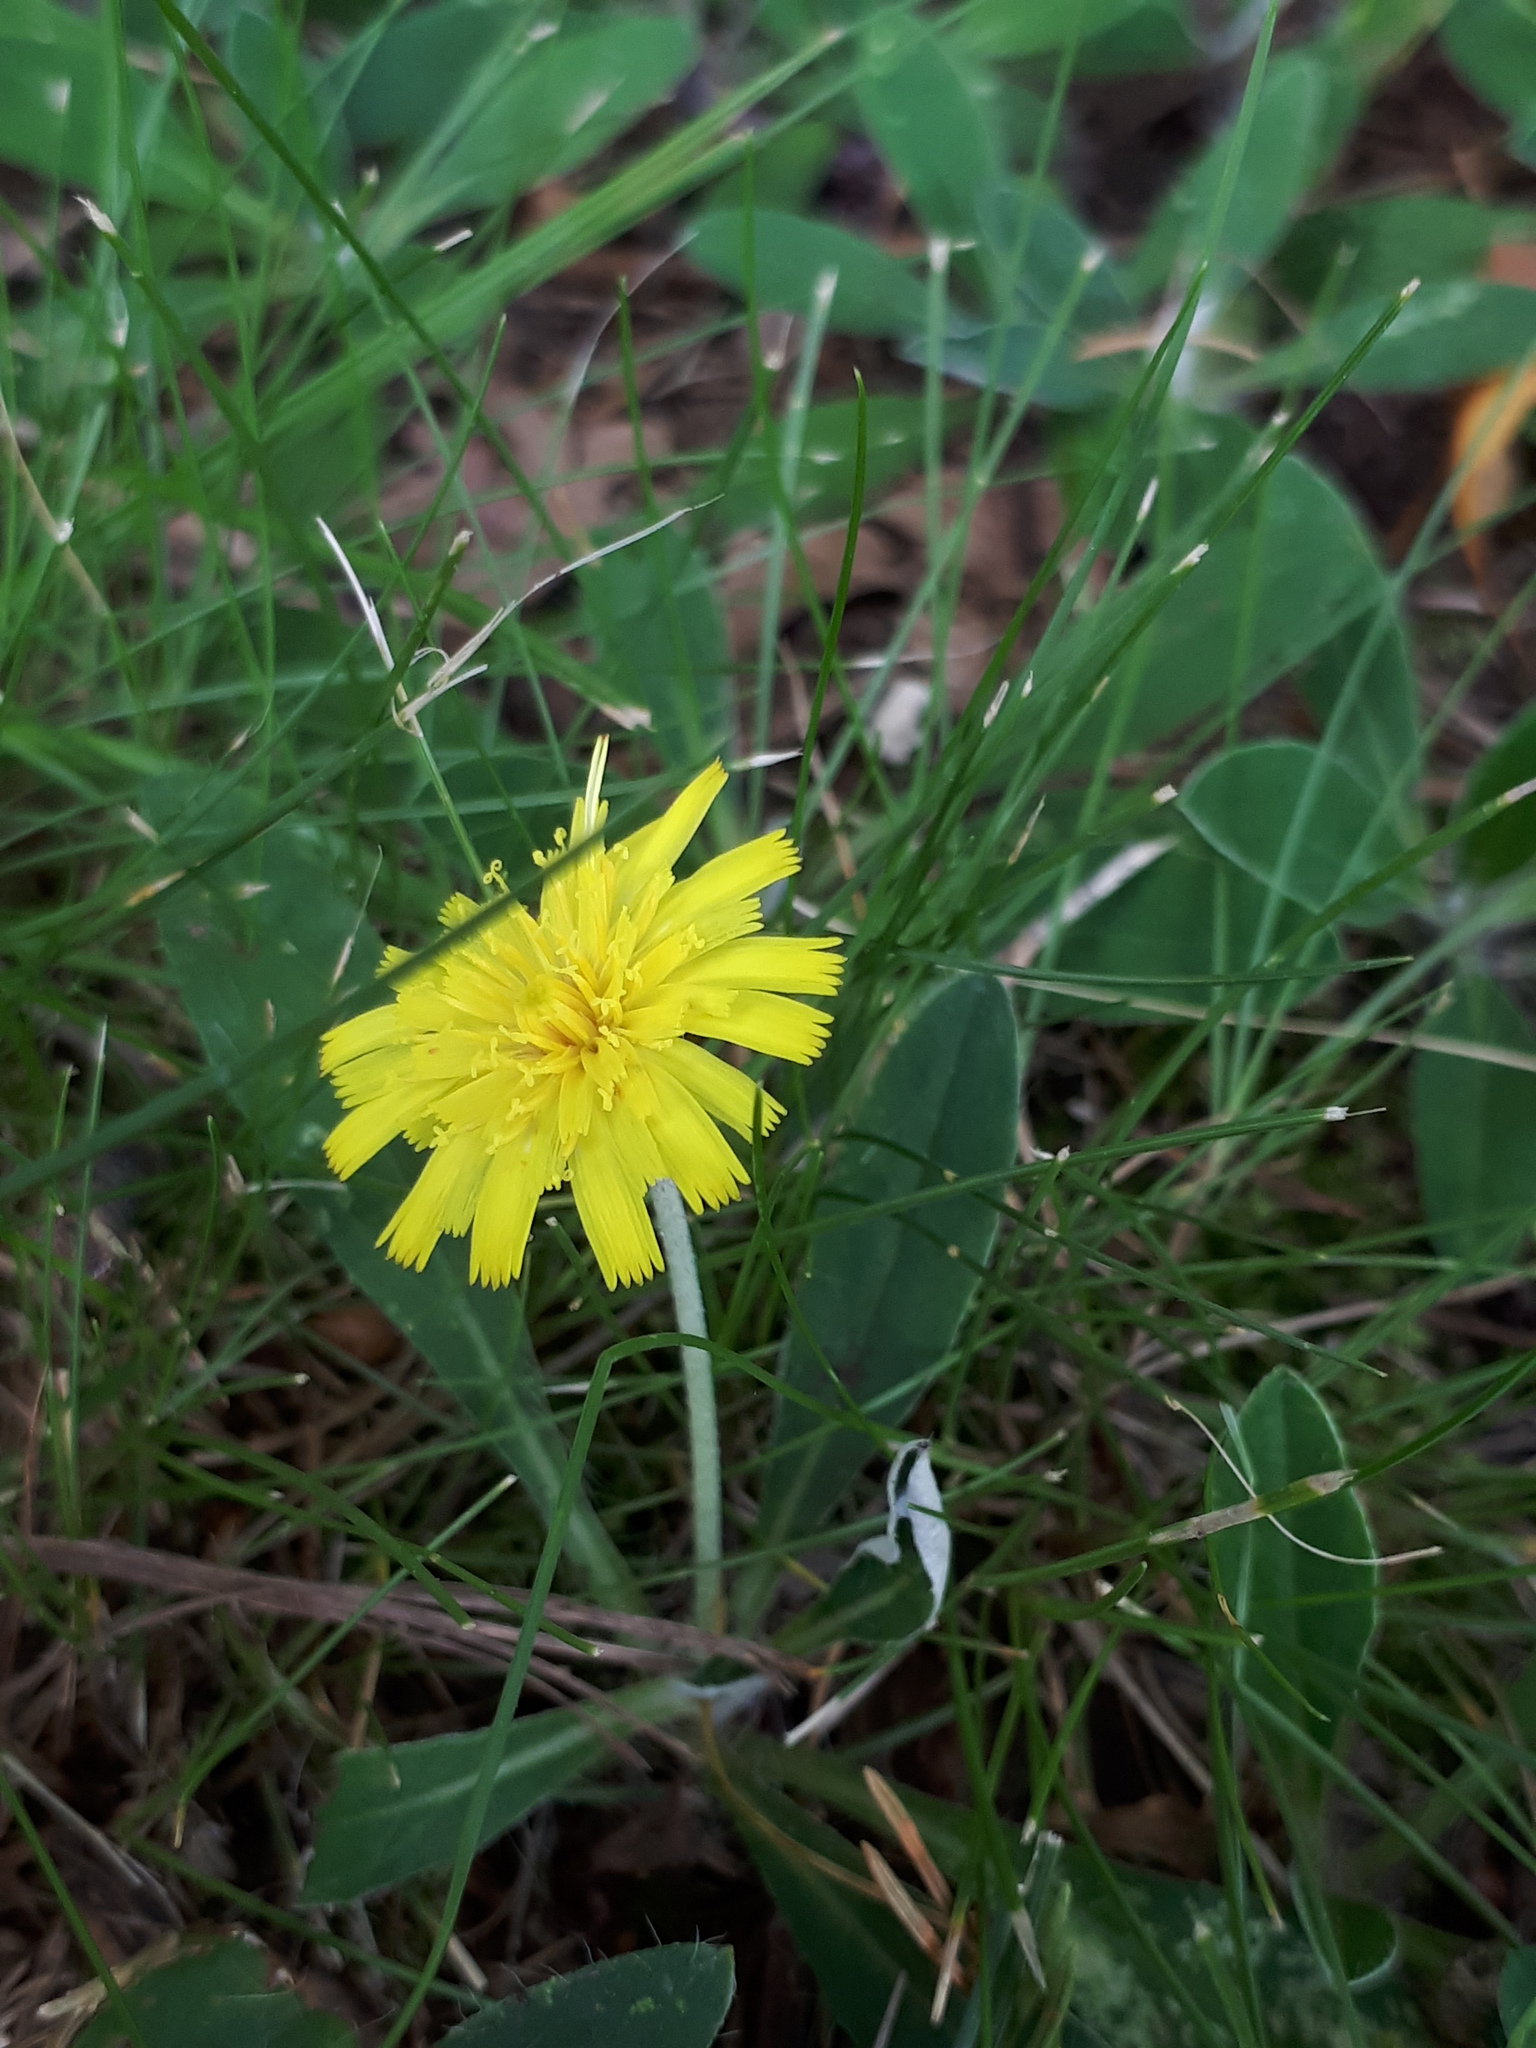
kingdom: Plantae
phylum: Tracheophyta
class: Magnoliopsida
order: Asterales
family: Asteraceae
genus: Pilosella
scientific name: Pilosella officinarum
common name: Mouse-ear hawkweed
